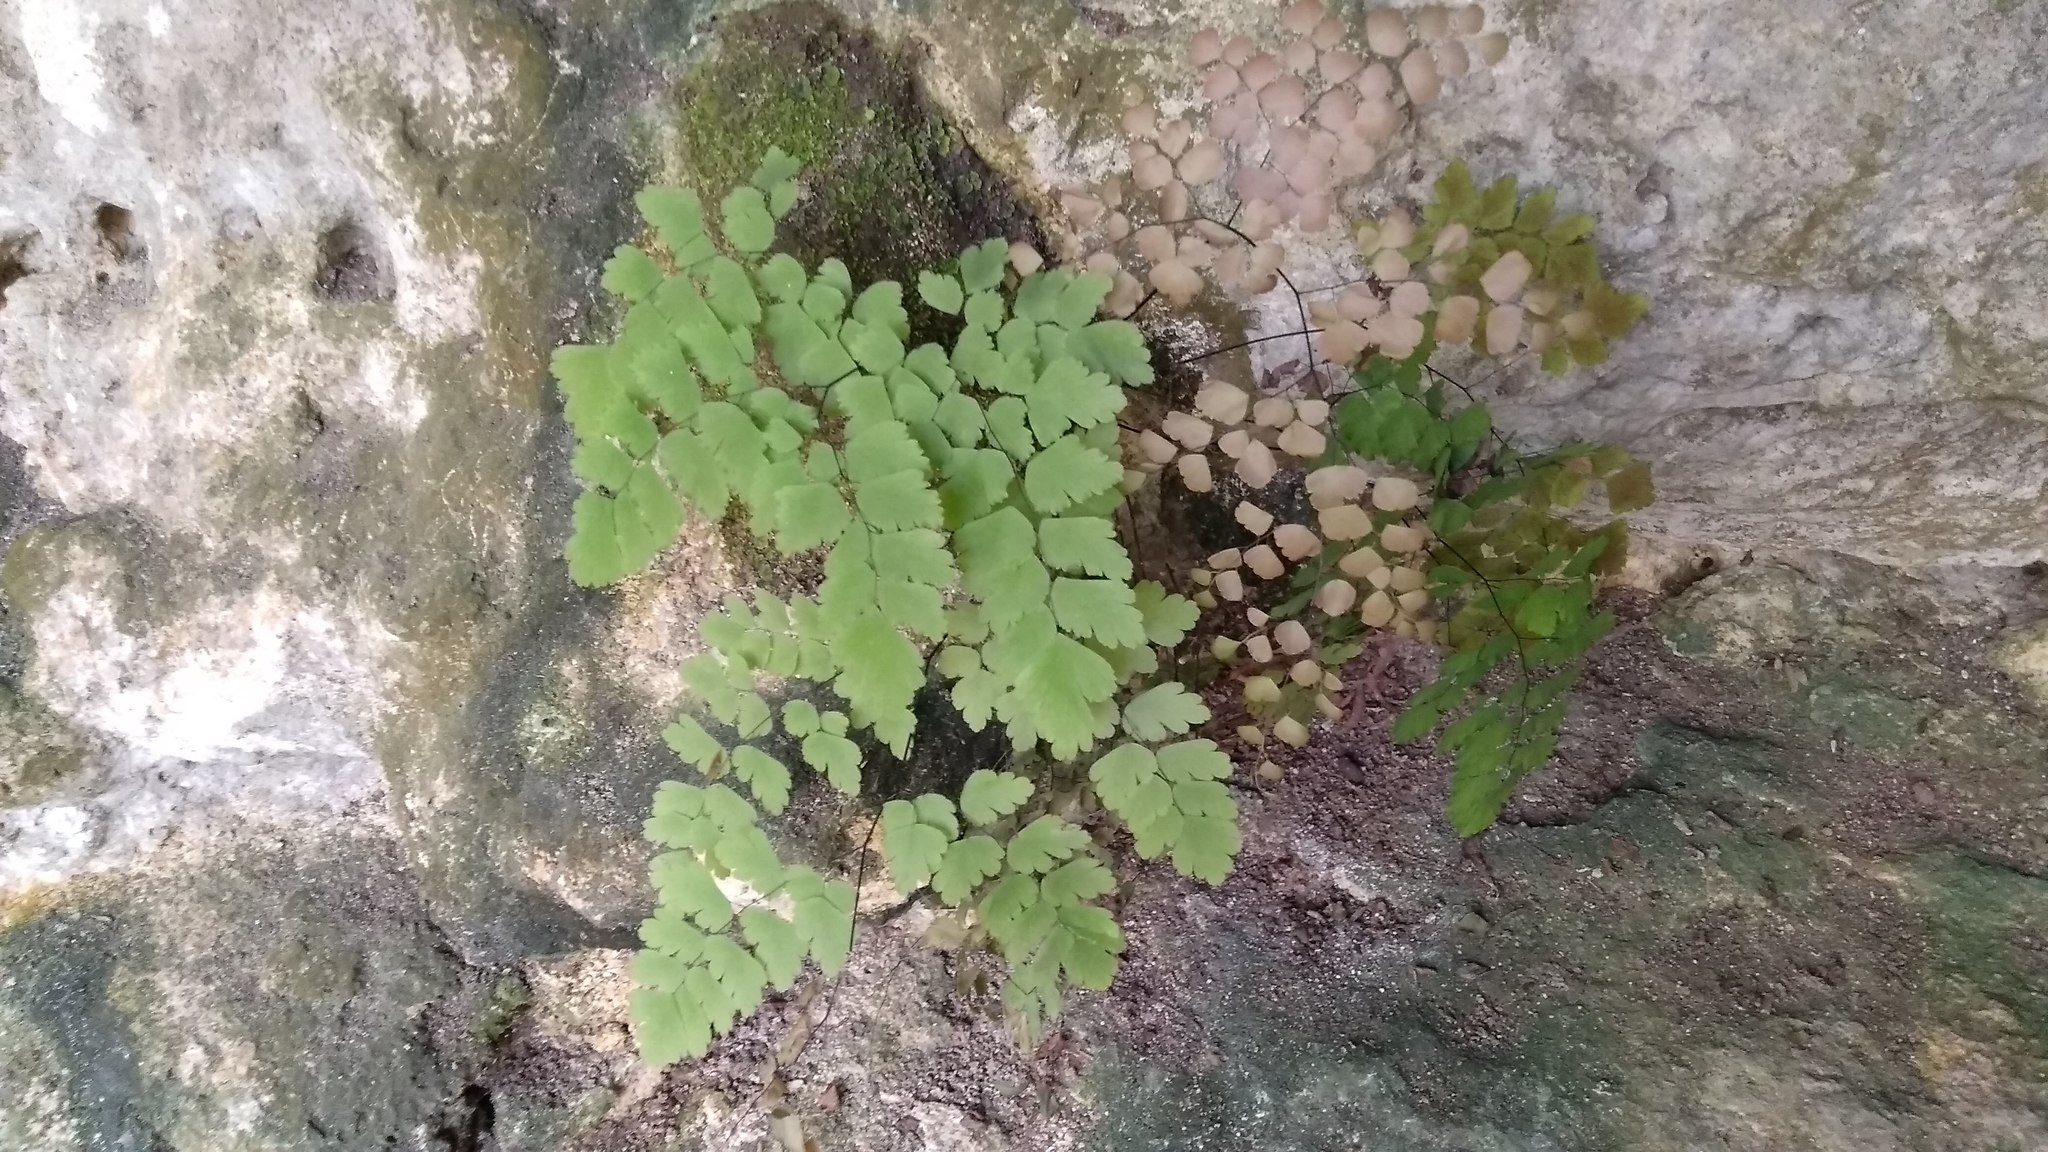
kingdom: Plantae
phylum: Tracheophyta
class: Polypodiopsida
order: Polypodiales
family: Pteridaceae
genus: Adiantum
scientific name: Adiantum tenerum
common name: Fan maidenhair
